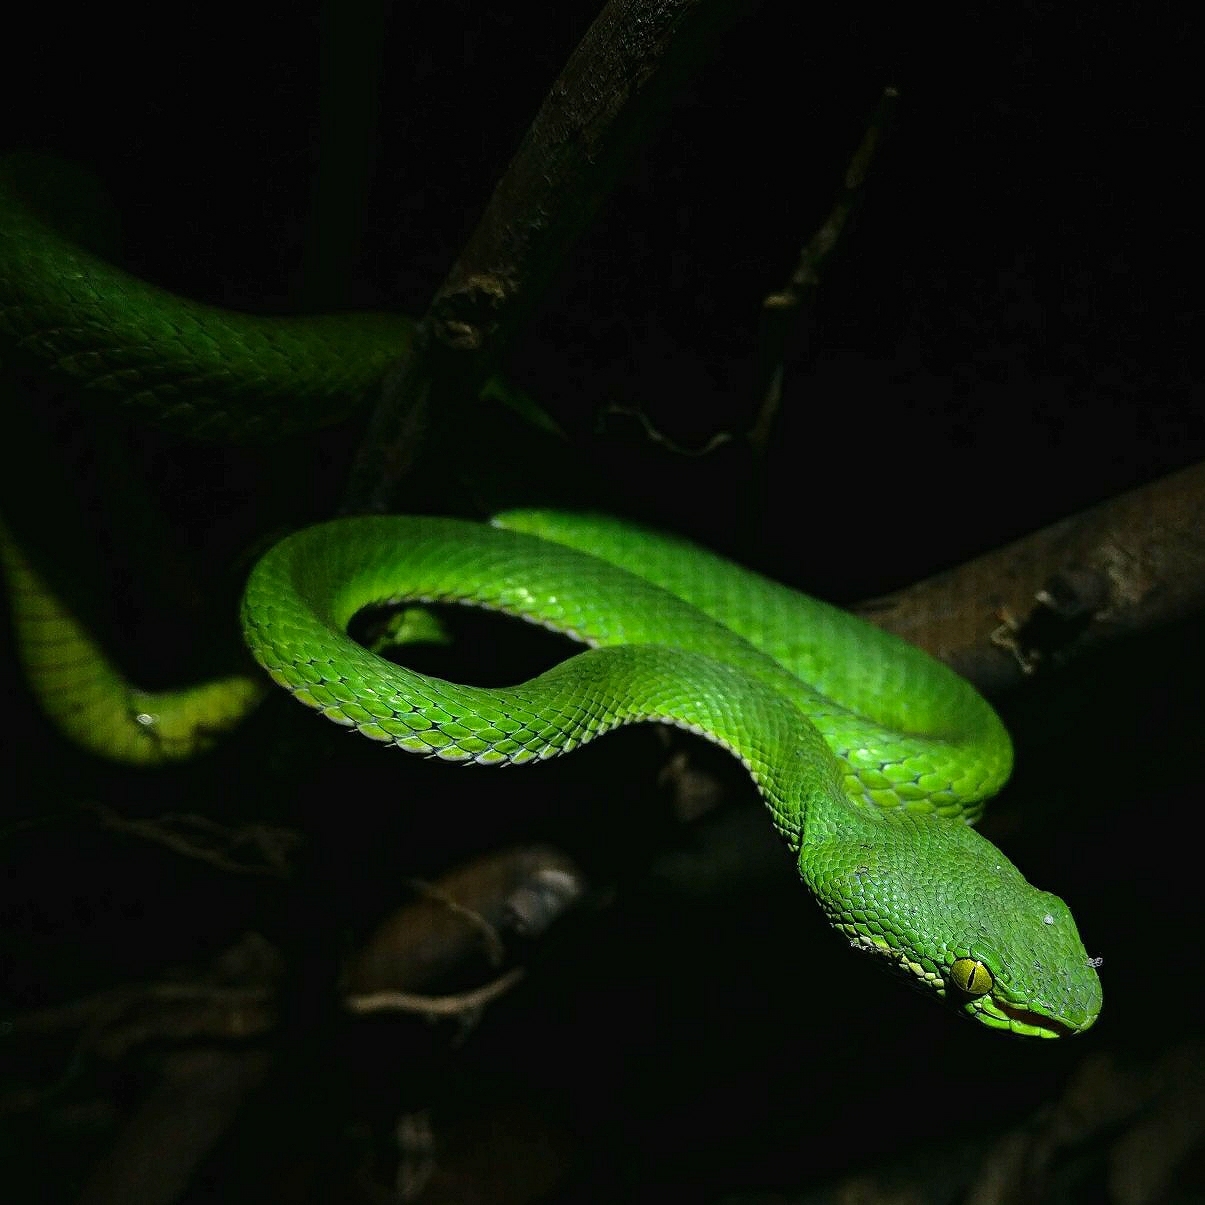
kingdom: Animalia
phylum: Chordata
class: Squamata
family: Viperidae
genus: Trimeresurus
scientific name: Trimeresurus septentrionalis
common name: Himalayan white-lipped pitviper
